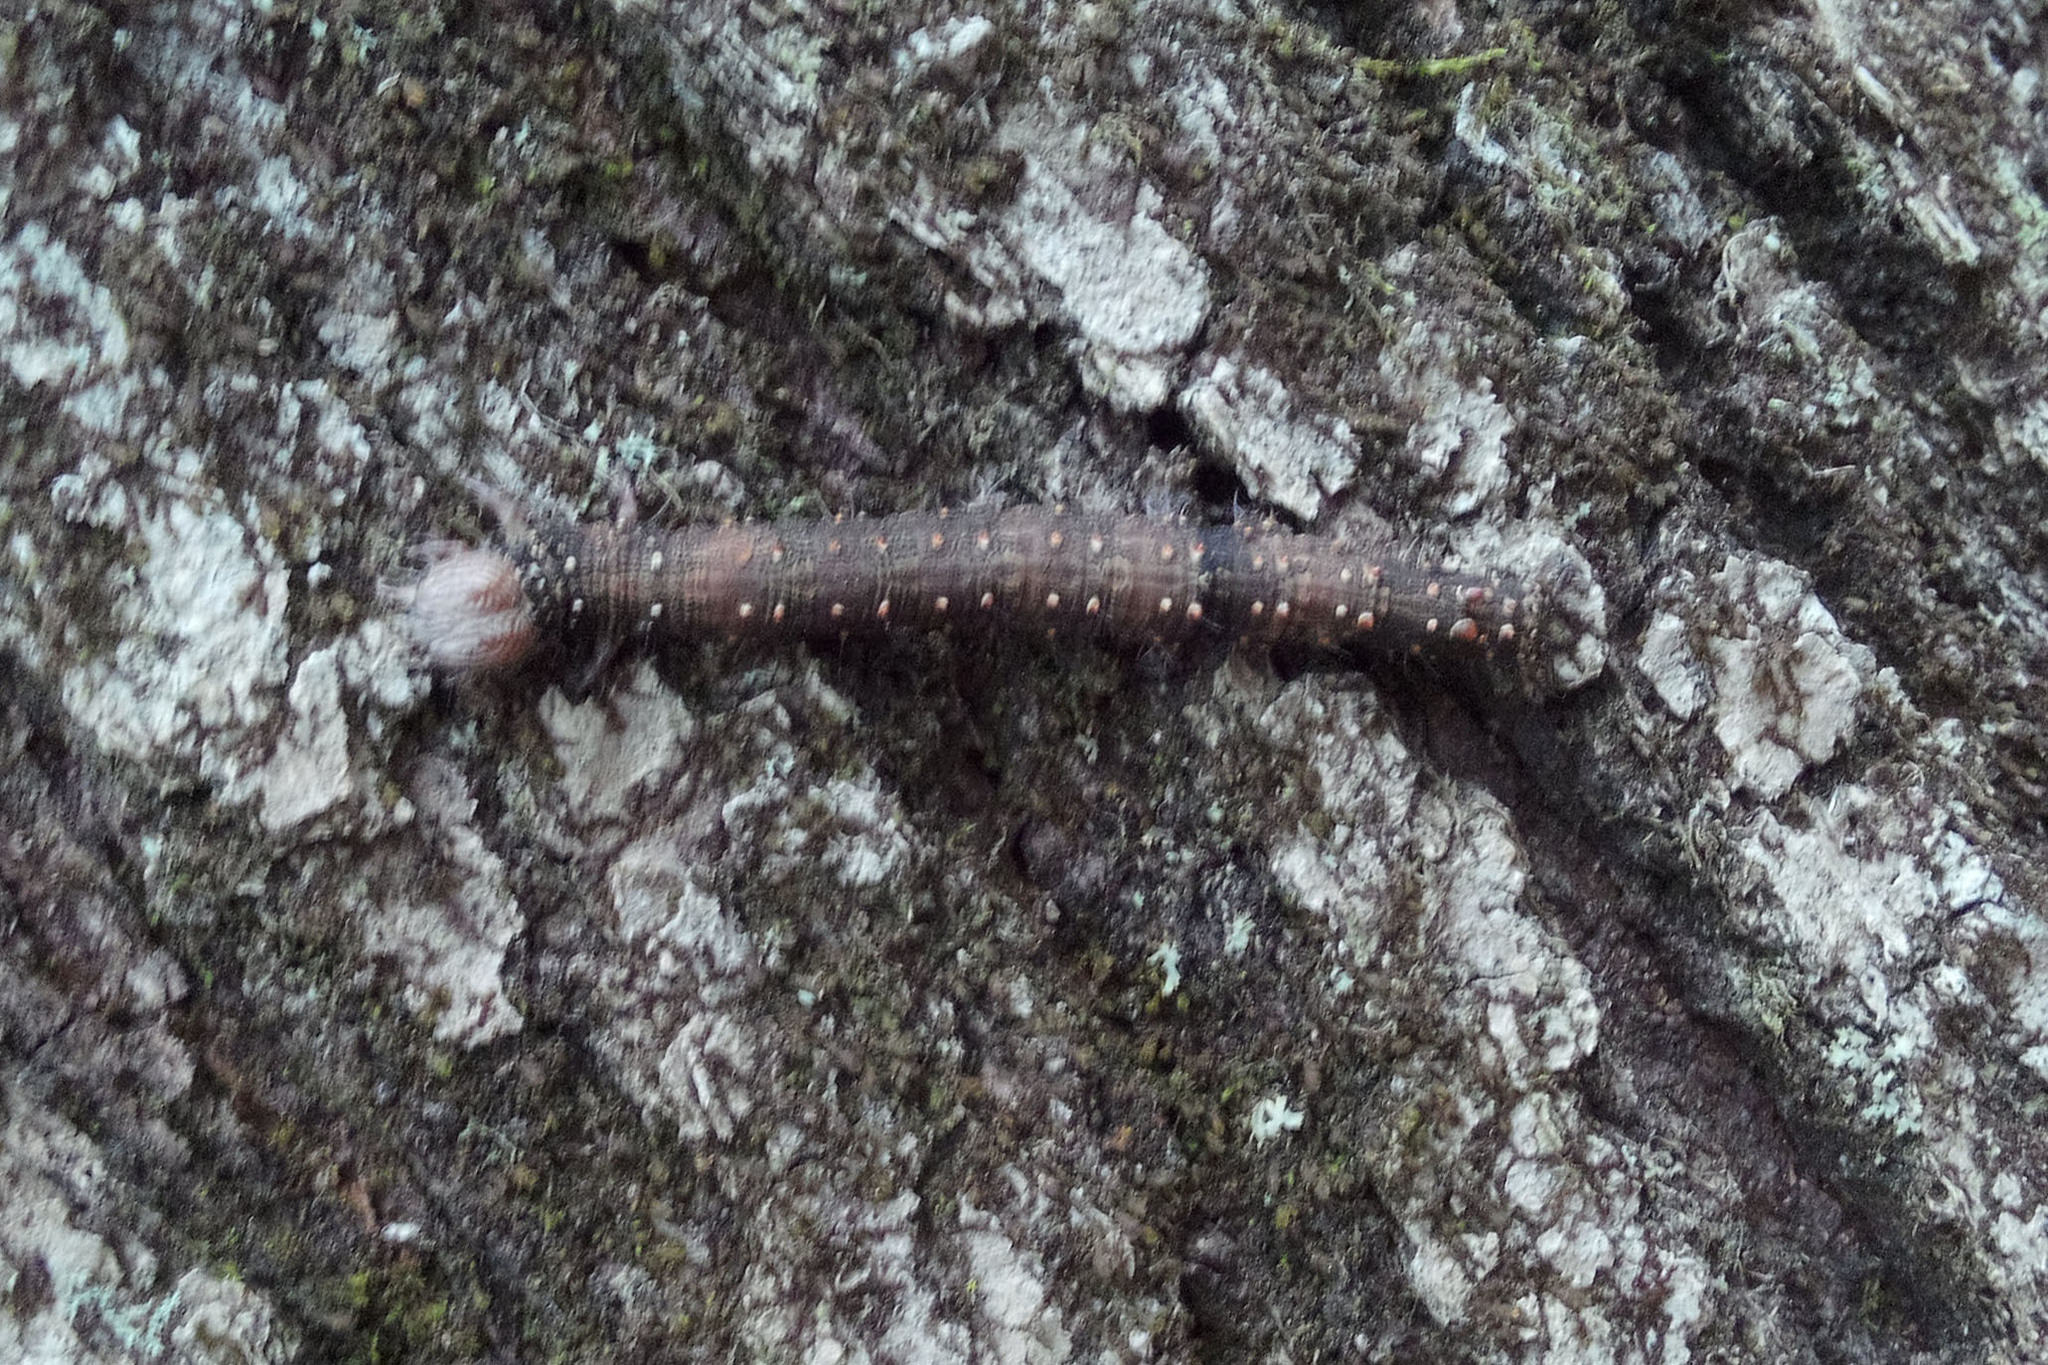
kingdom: Animalia
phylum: Arthropoda
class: Insecta
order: Lepidoptera
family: Erebidae
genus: Catocala
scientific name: Catocala palaeogama
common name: Oldwife underwing
